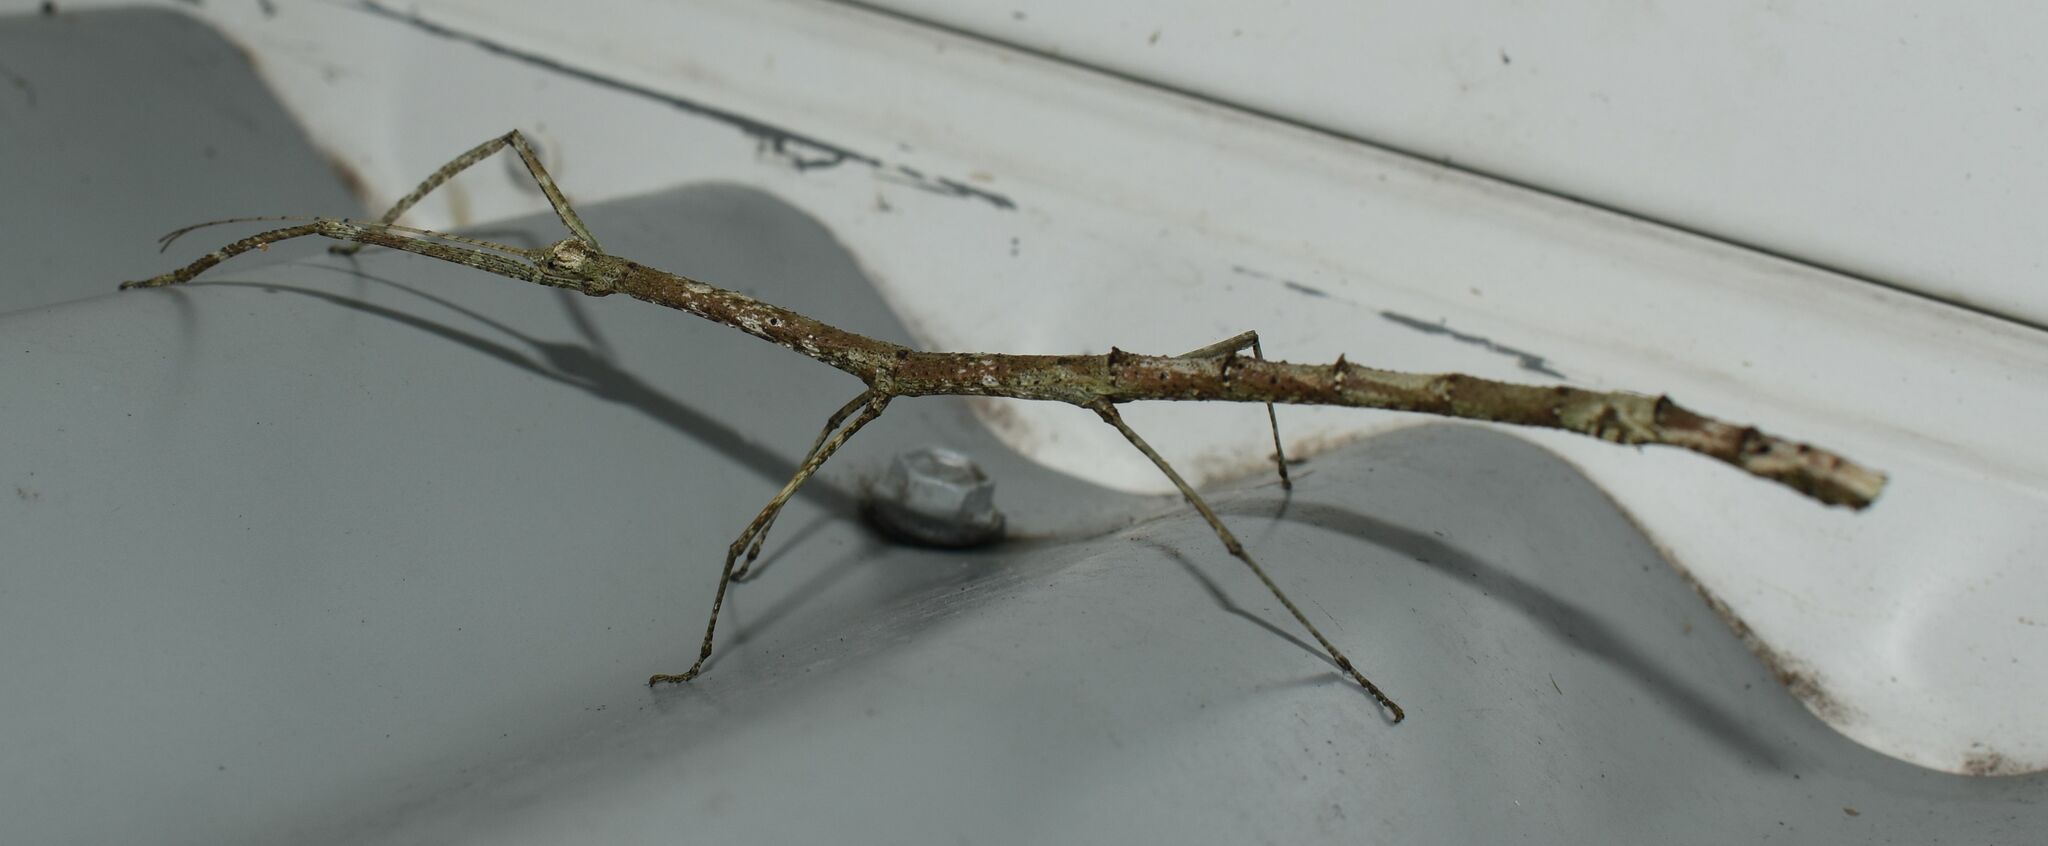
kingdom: Animalia
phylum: Arthropoda
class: Insecta
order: Phasmida
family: Lonchodidae
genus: Austrocarausius
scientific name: Austrocarausius
